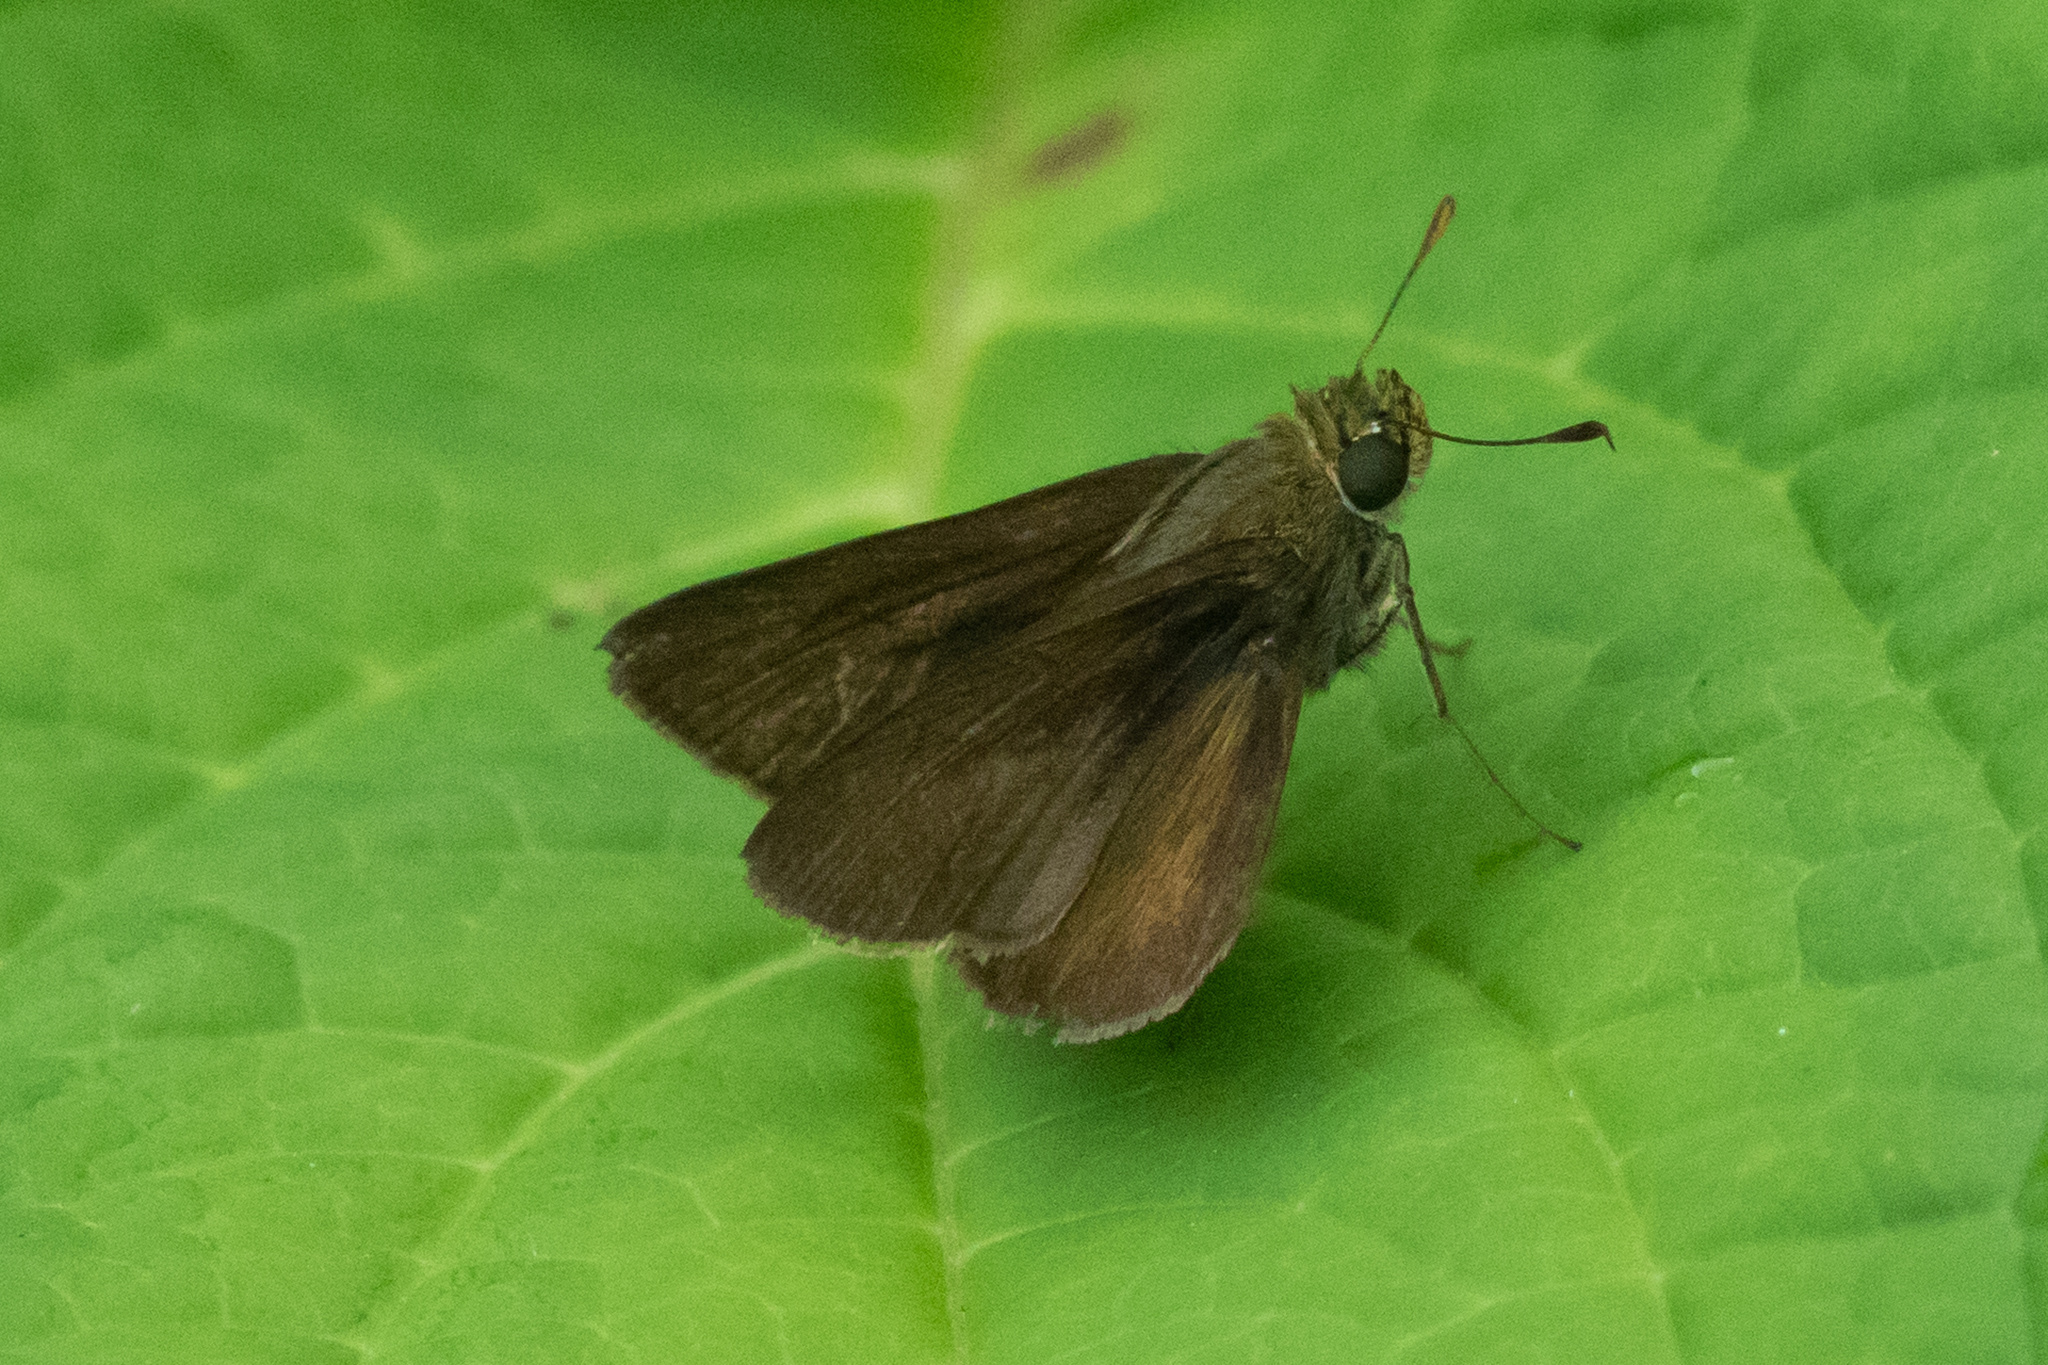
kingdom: Animalia
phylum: Arthropoda
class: Insecta
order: Lepidoptera
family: Hesperiidae
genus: Euphyes
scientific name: Euphyes vestris
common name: Dun skipper
